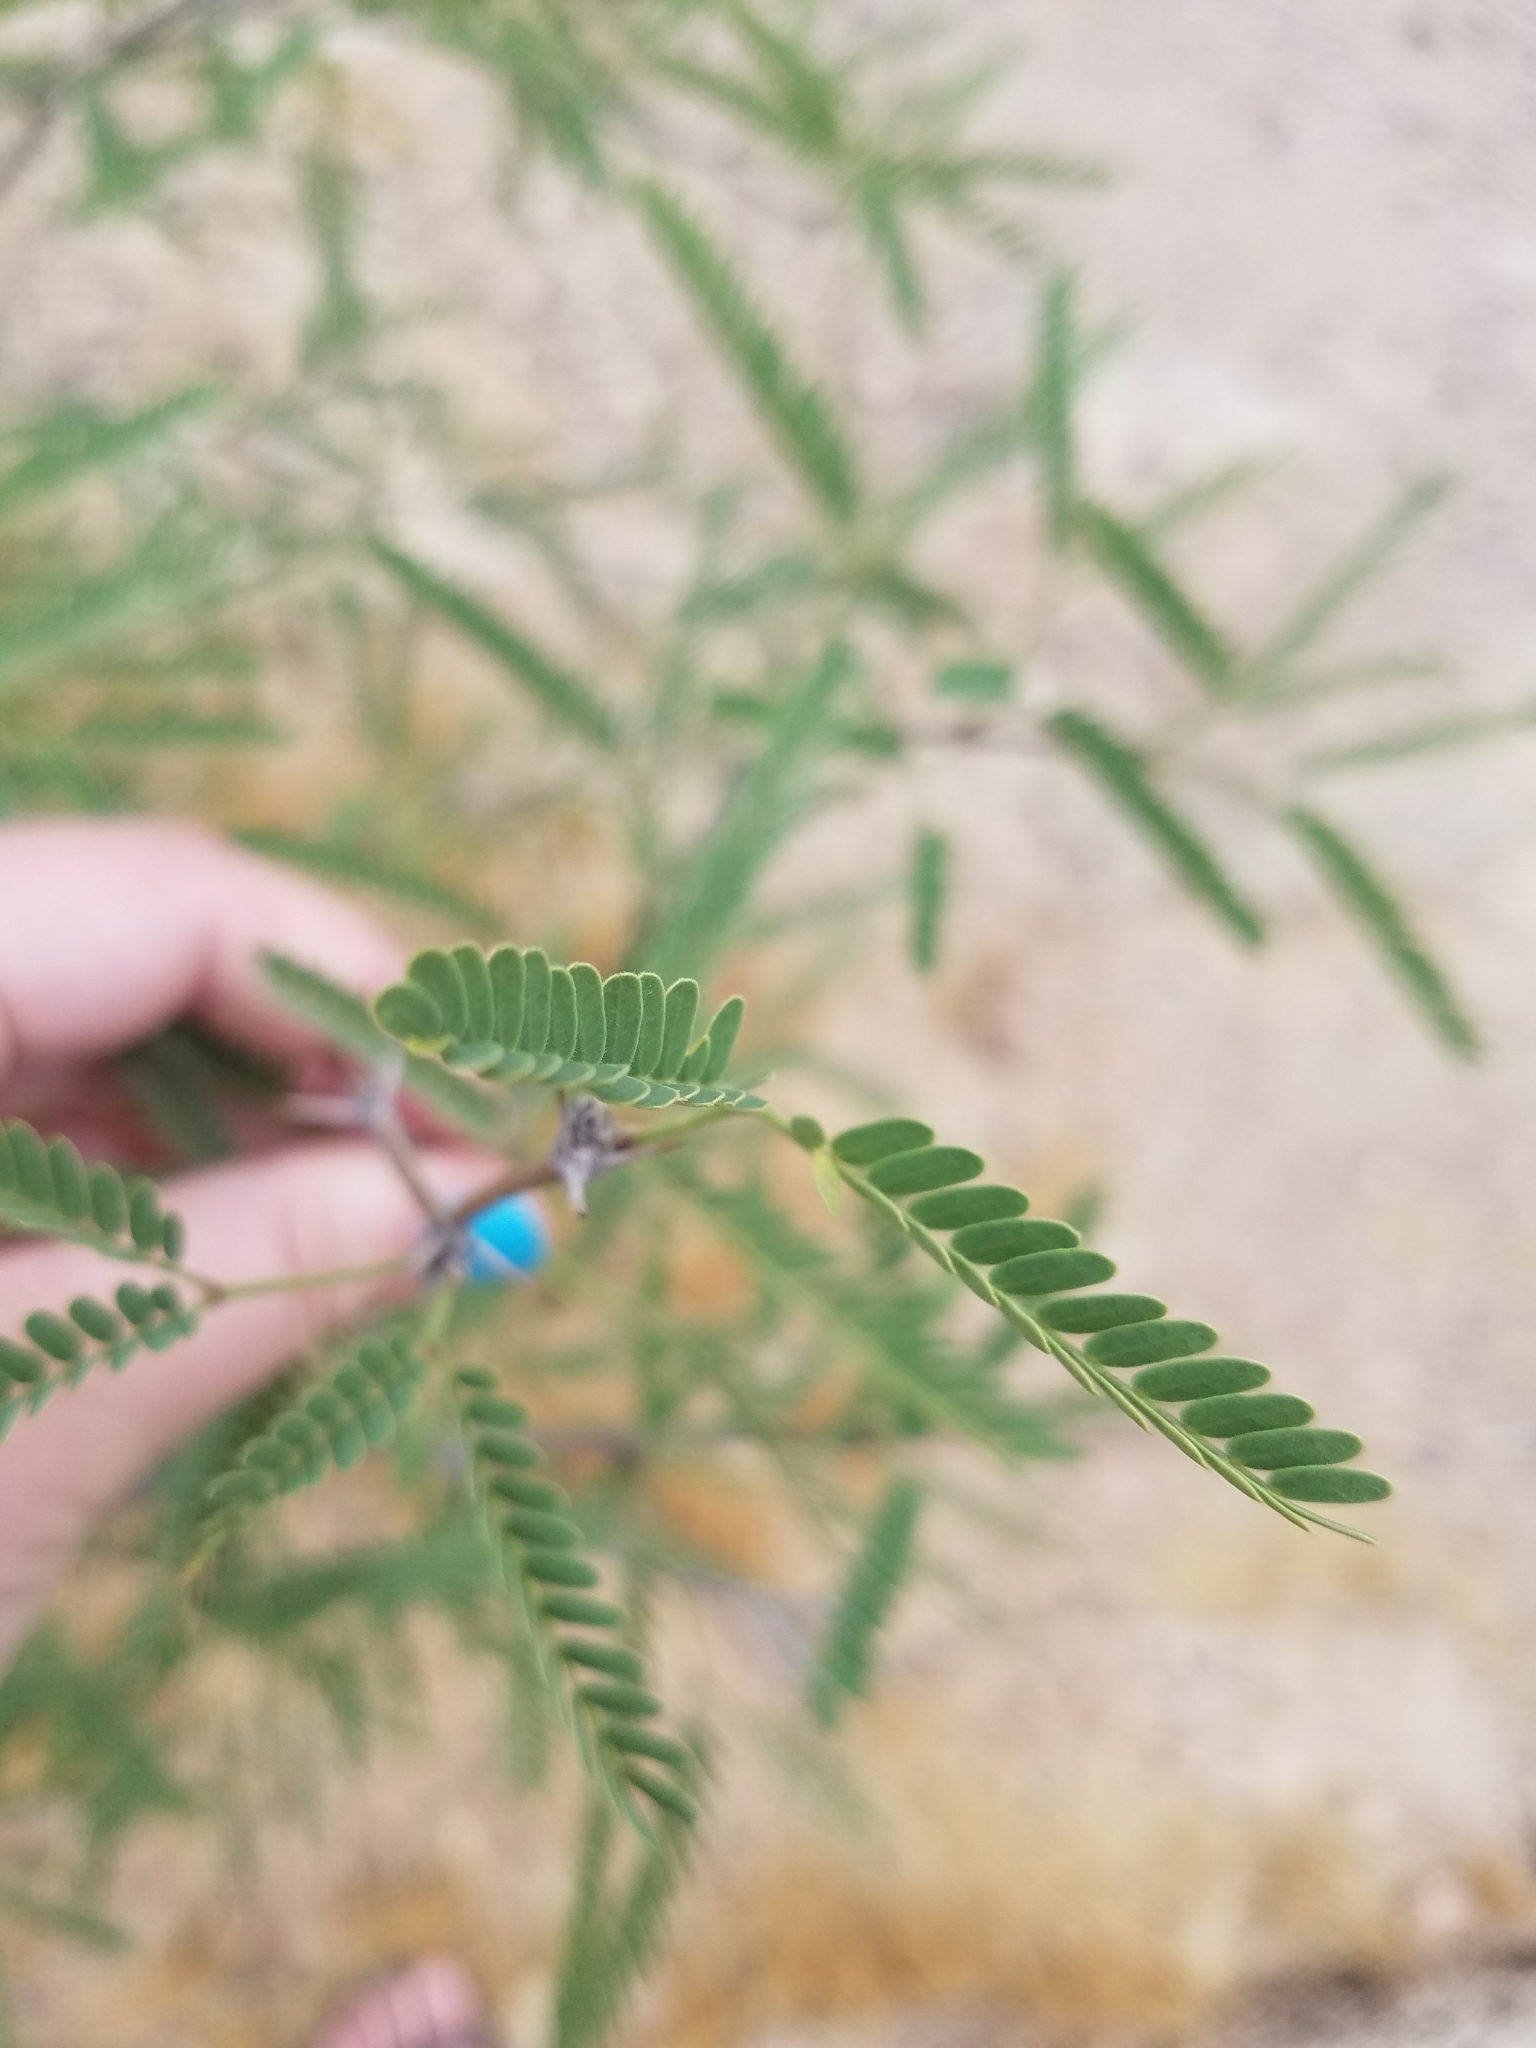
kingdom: Plantae
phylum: Tracheophyta
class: Magnoliopsida
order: Fabales
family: Fabaceae
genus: Prosopis
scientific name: Prosopis velutina
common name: Velvet mesquite
